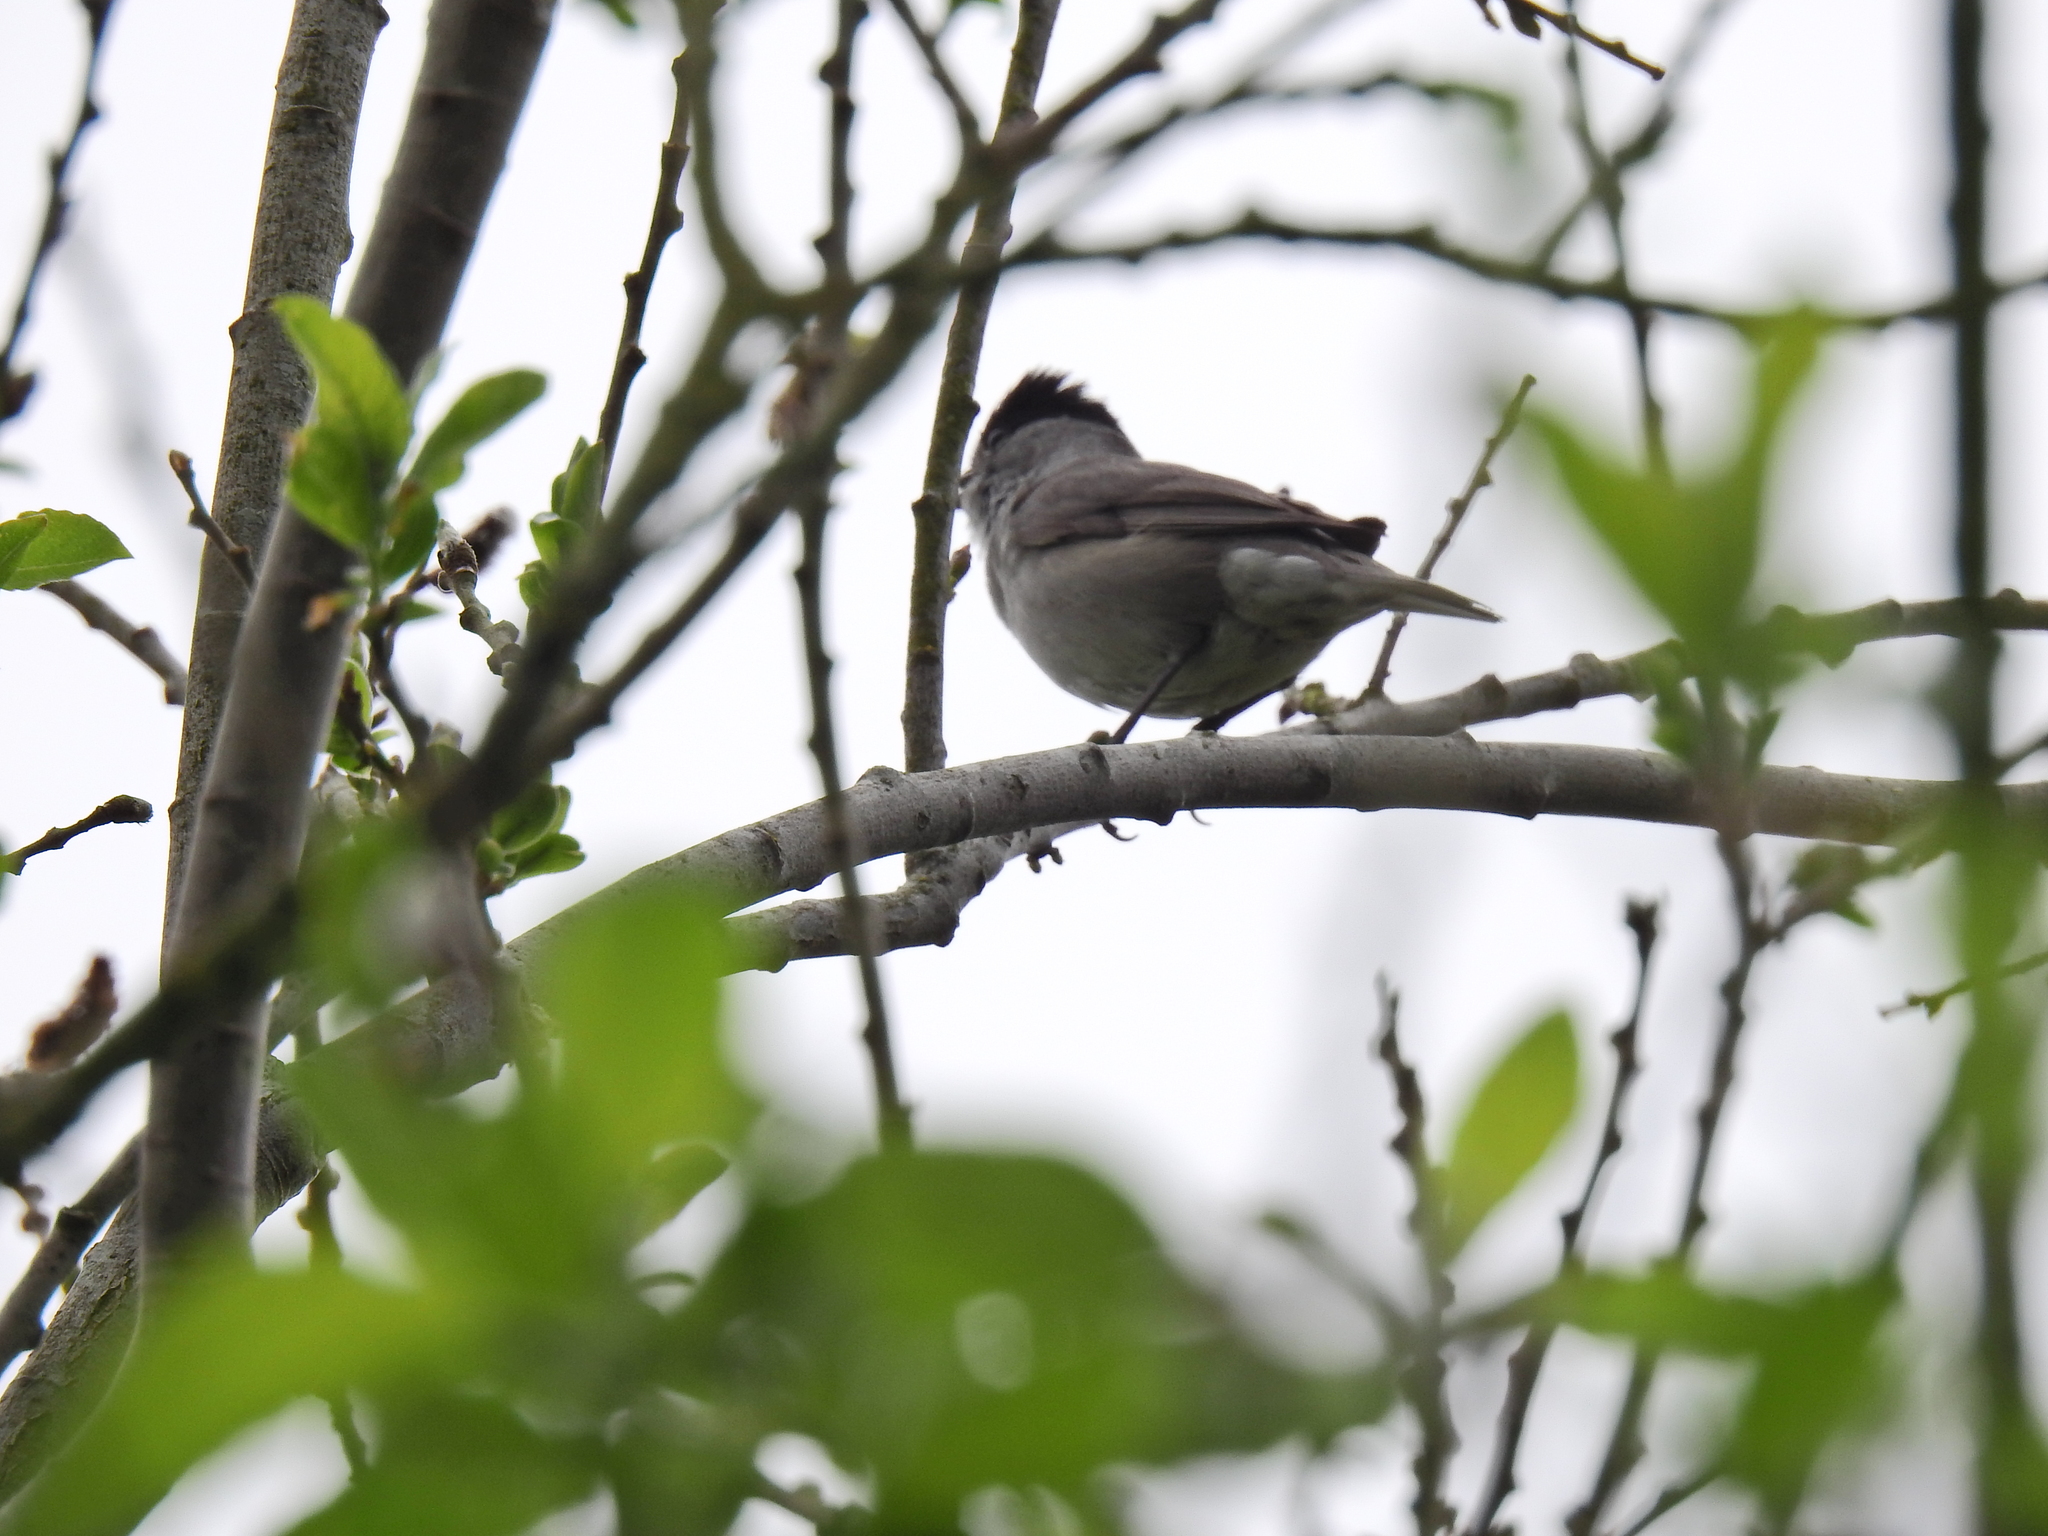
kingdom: Animalia
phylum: Chordata
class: Aves
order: Passeriformes
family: Sylviidae
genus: Sylvia
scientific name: Sylvia atricapilla
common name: Eurasian blackcap
